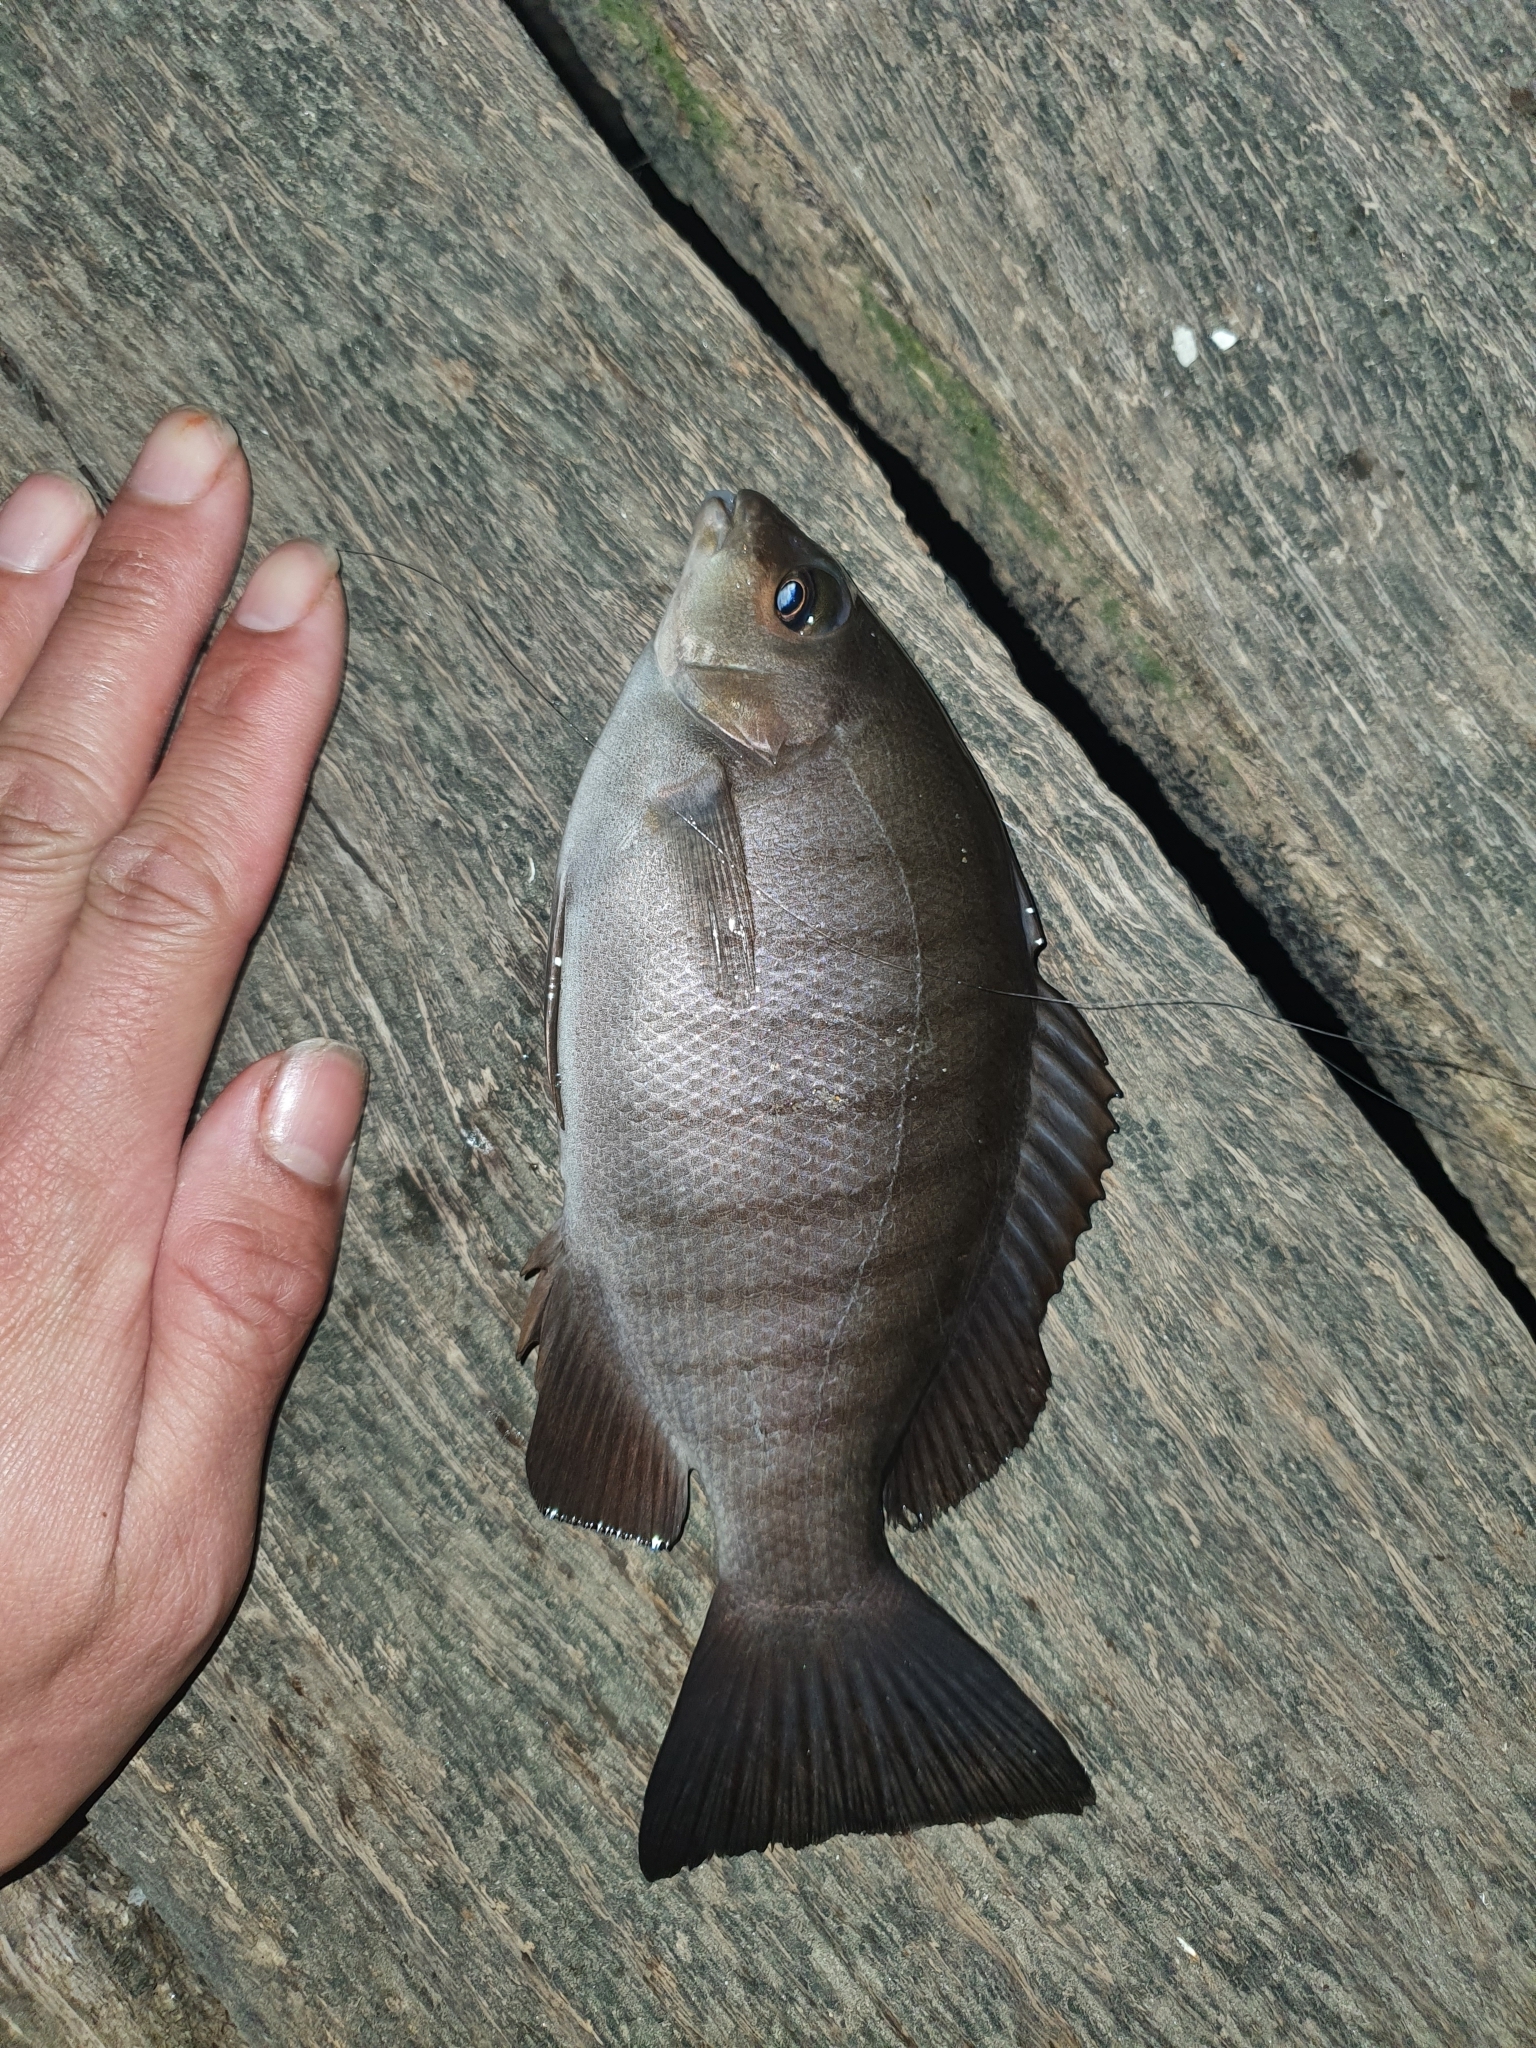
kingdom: Animalia
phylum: Chordata
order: Perciformes
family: Kyphosidae
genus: Girella
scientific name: Girella tricuspidata
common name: Parore
